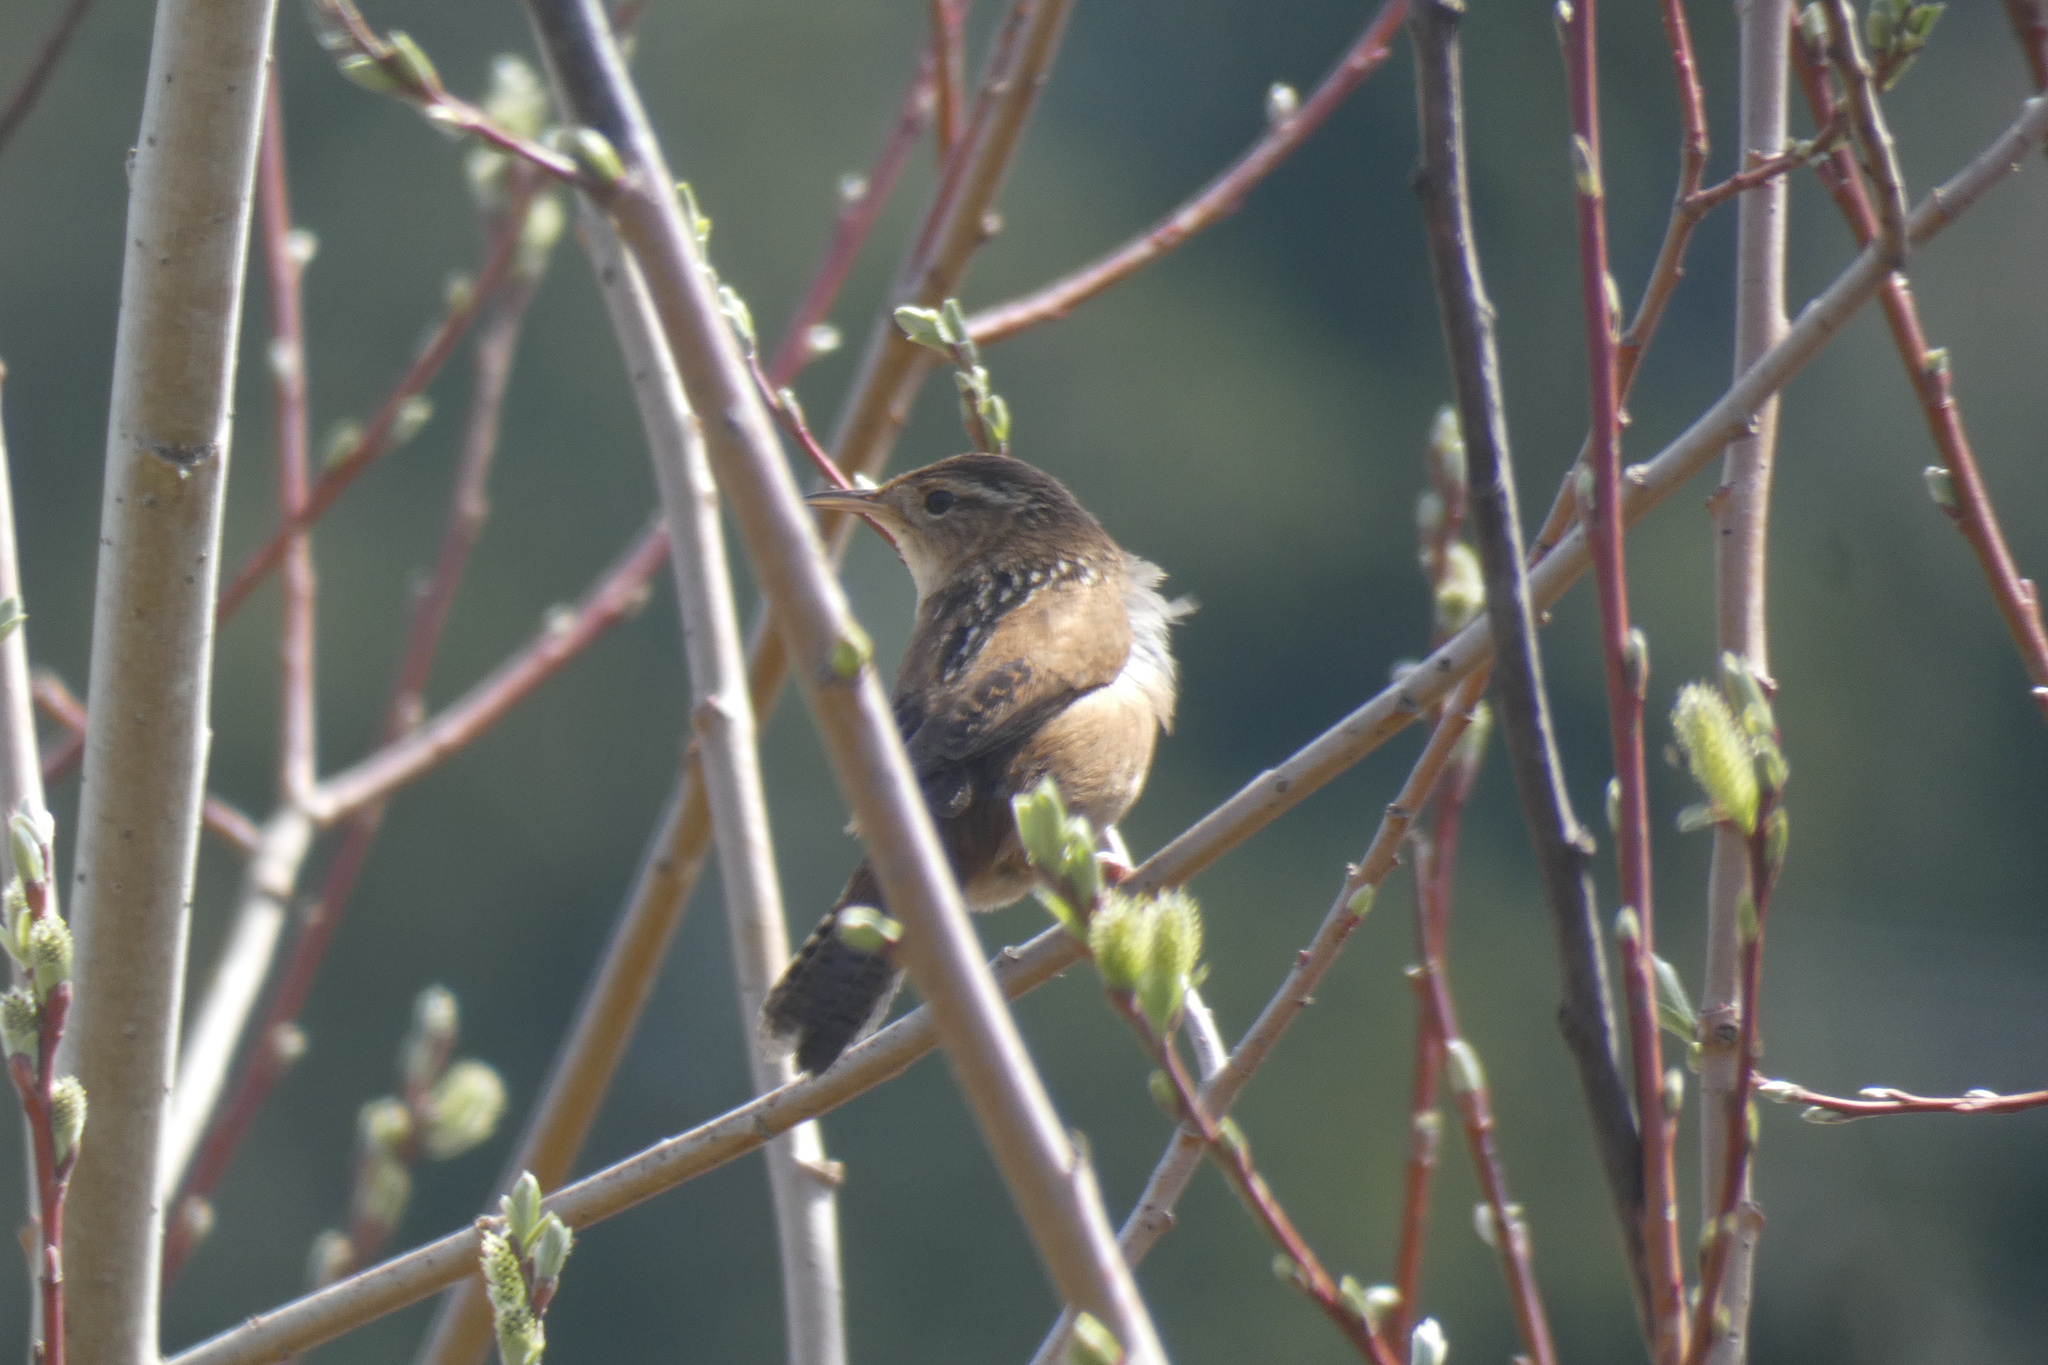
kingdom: Animalia
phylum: Chordata
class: Aves
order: Passeriformes
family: Troglodytidae
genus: Cistothorus
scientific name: Cistothorus palustris
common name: Marsh wren
